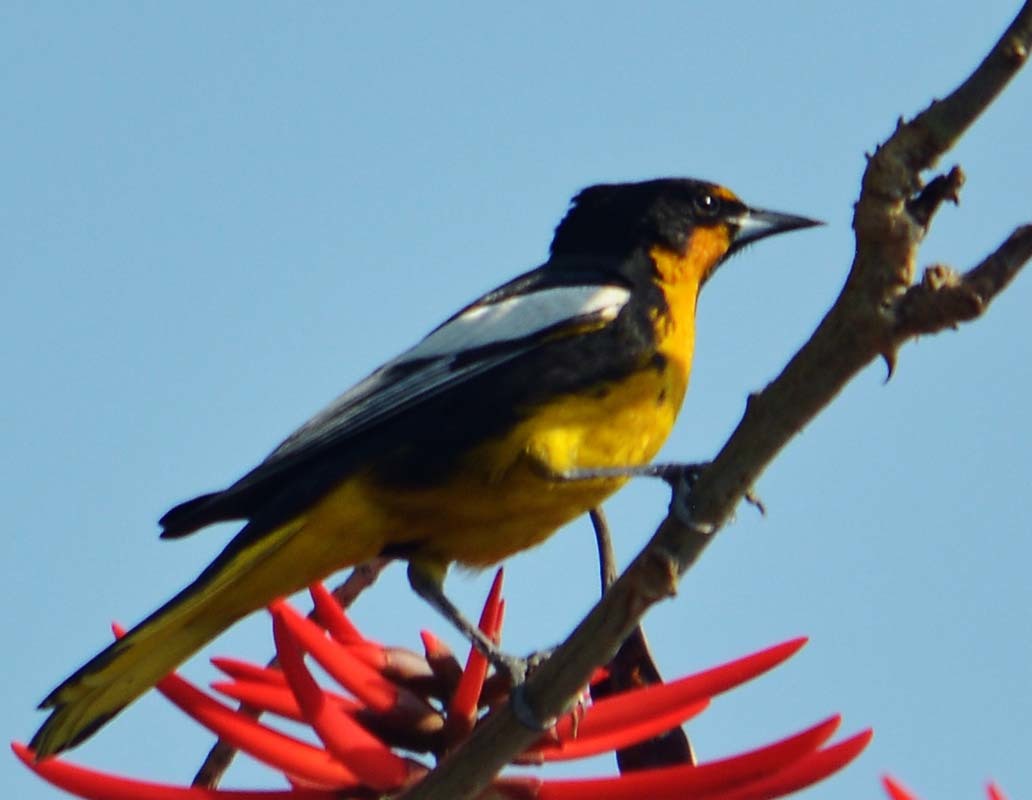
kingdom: Animalia
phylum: Chordata
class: Aves
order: Passeriformes
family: Icteridae
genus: Icterus
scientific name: Icterus abeillei
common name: Black-backed oriole
